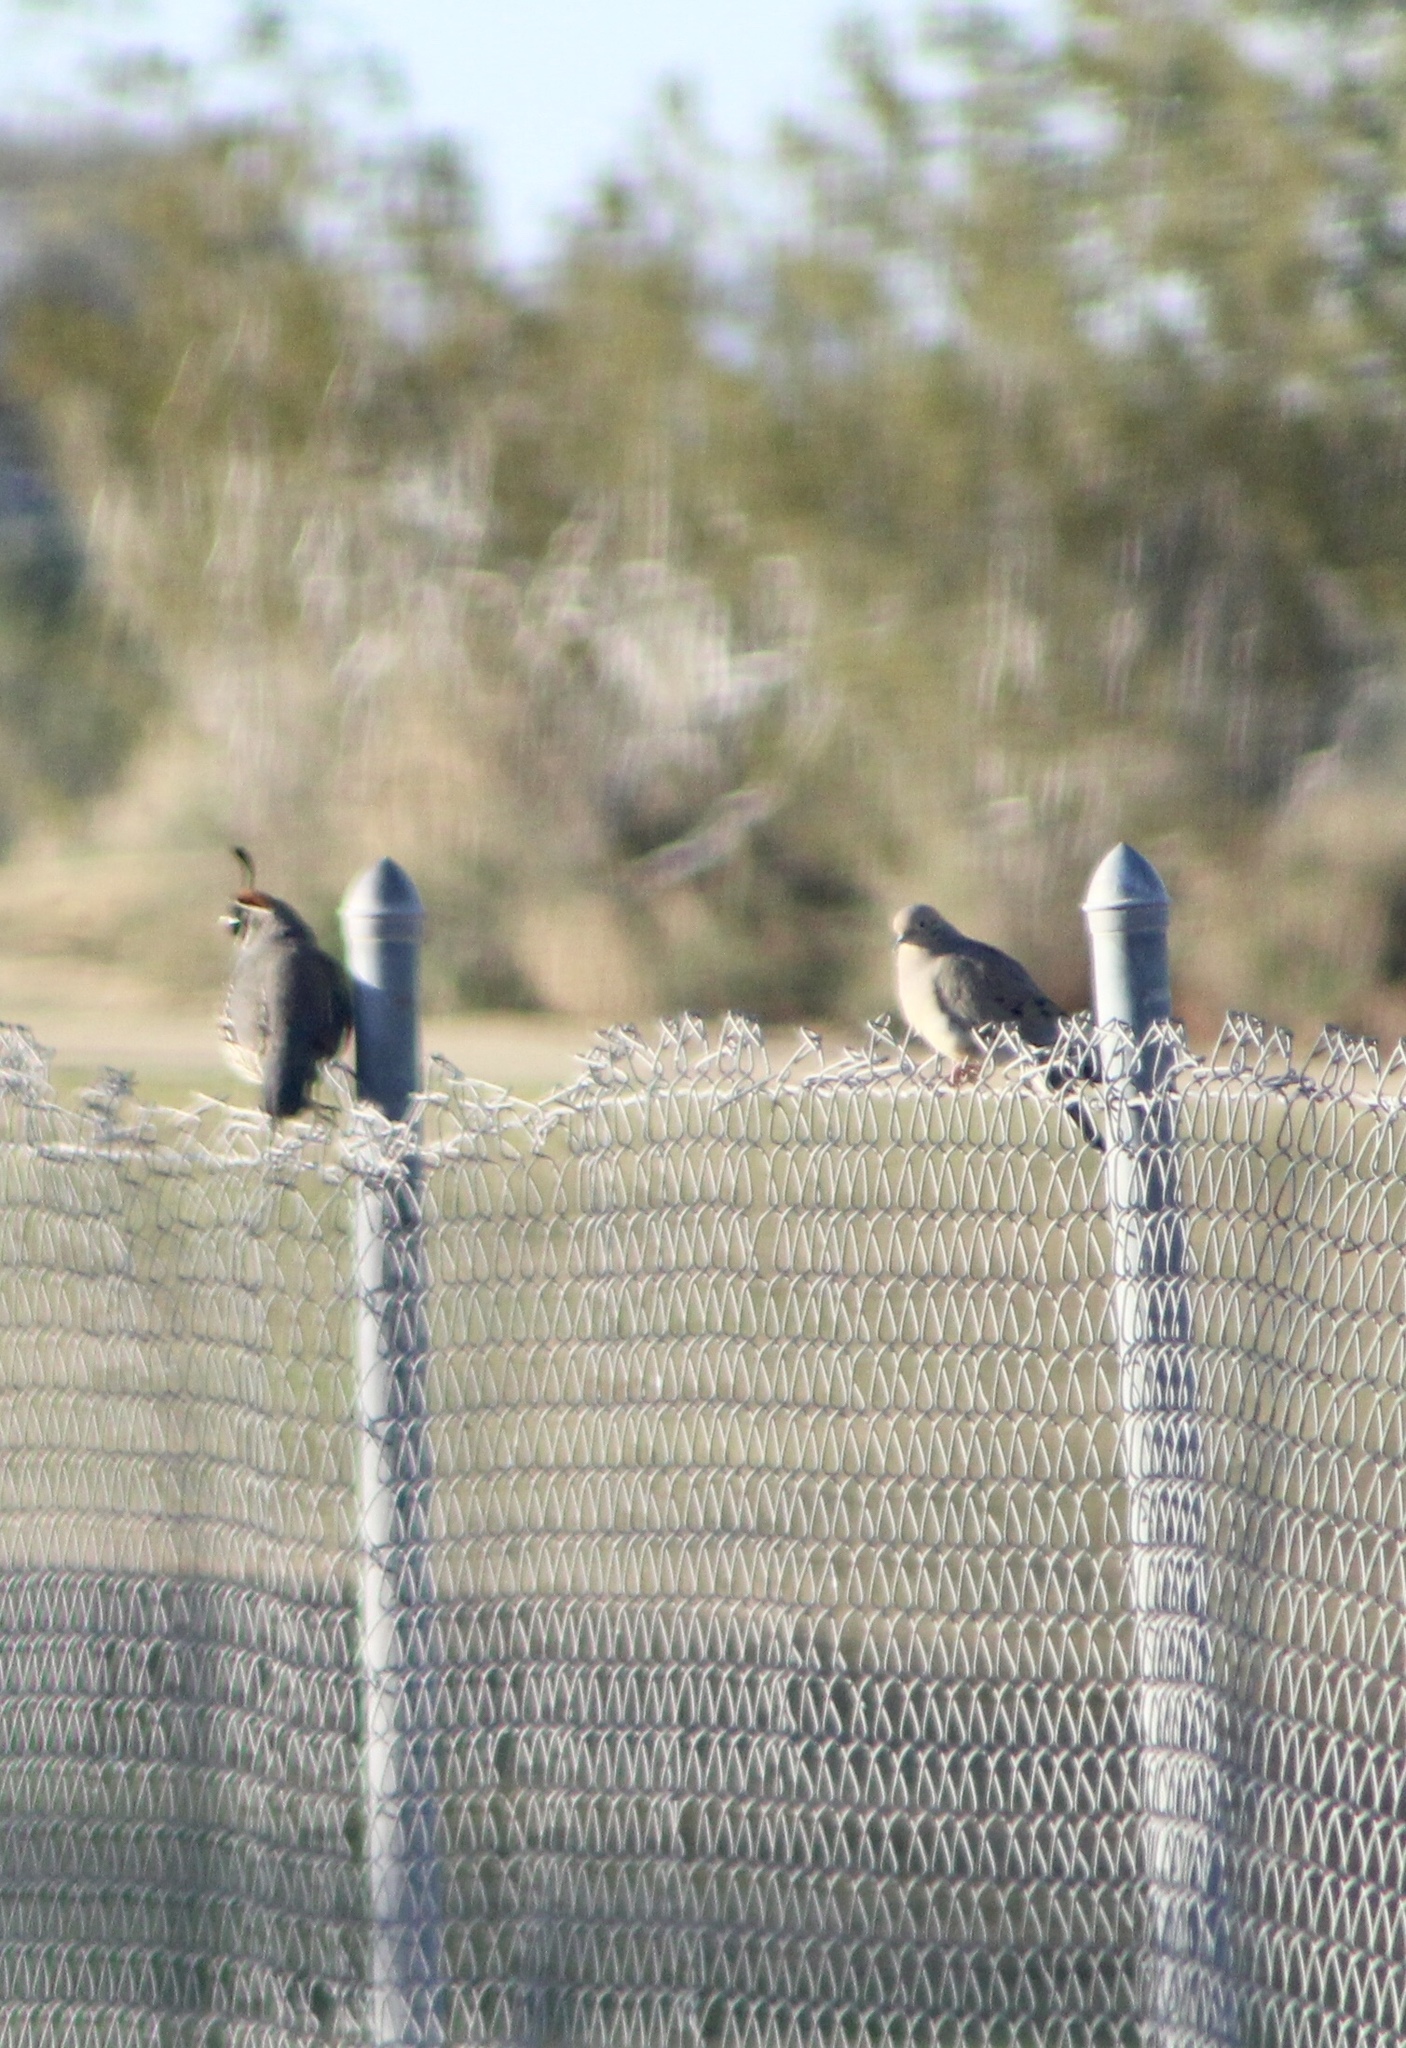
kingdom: Animalia
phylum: Chordata
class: Aves
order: Galliformes
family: Odontophoridae
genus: Callipepla
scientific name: Callipepla gambelii
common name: Gambel's quail
